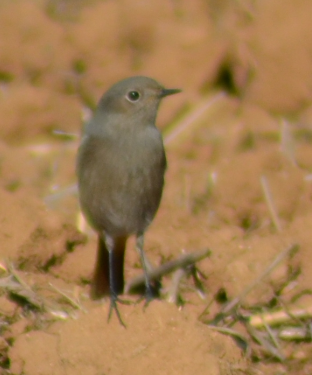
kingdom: Animalia
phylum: Chordata
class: Aves
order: Passeriformes
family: Muscicapidae
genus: Phoenicurus
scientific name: Phoenicurus ochruros
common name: Black redstart
